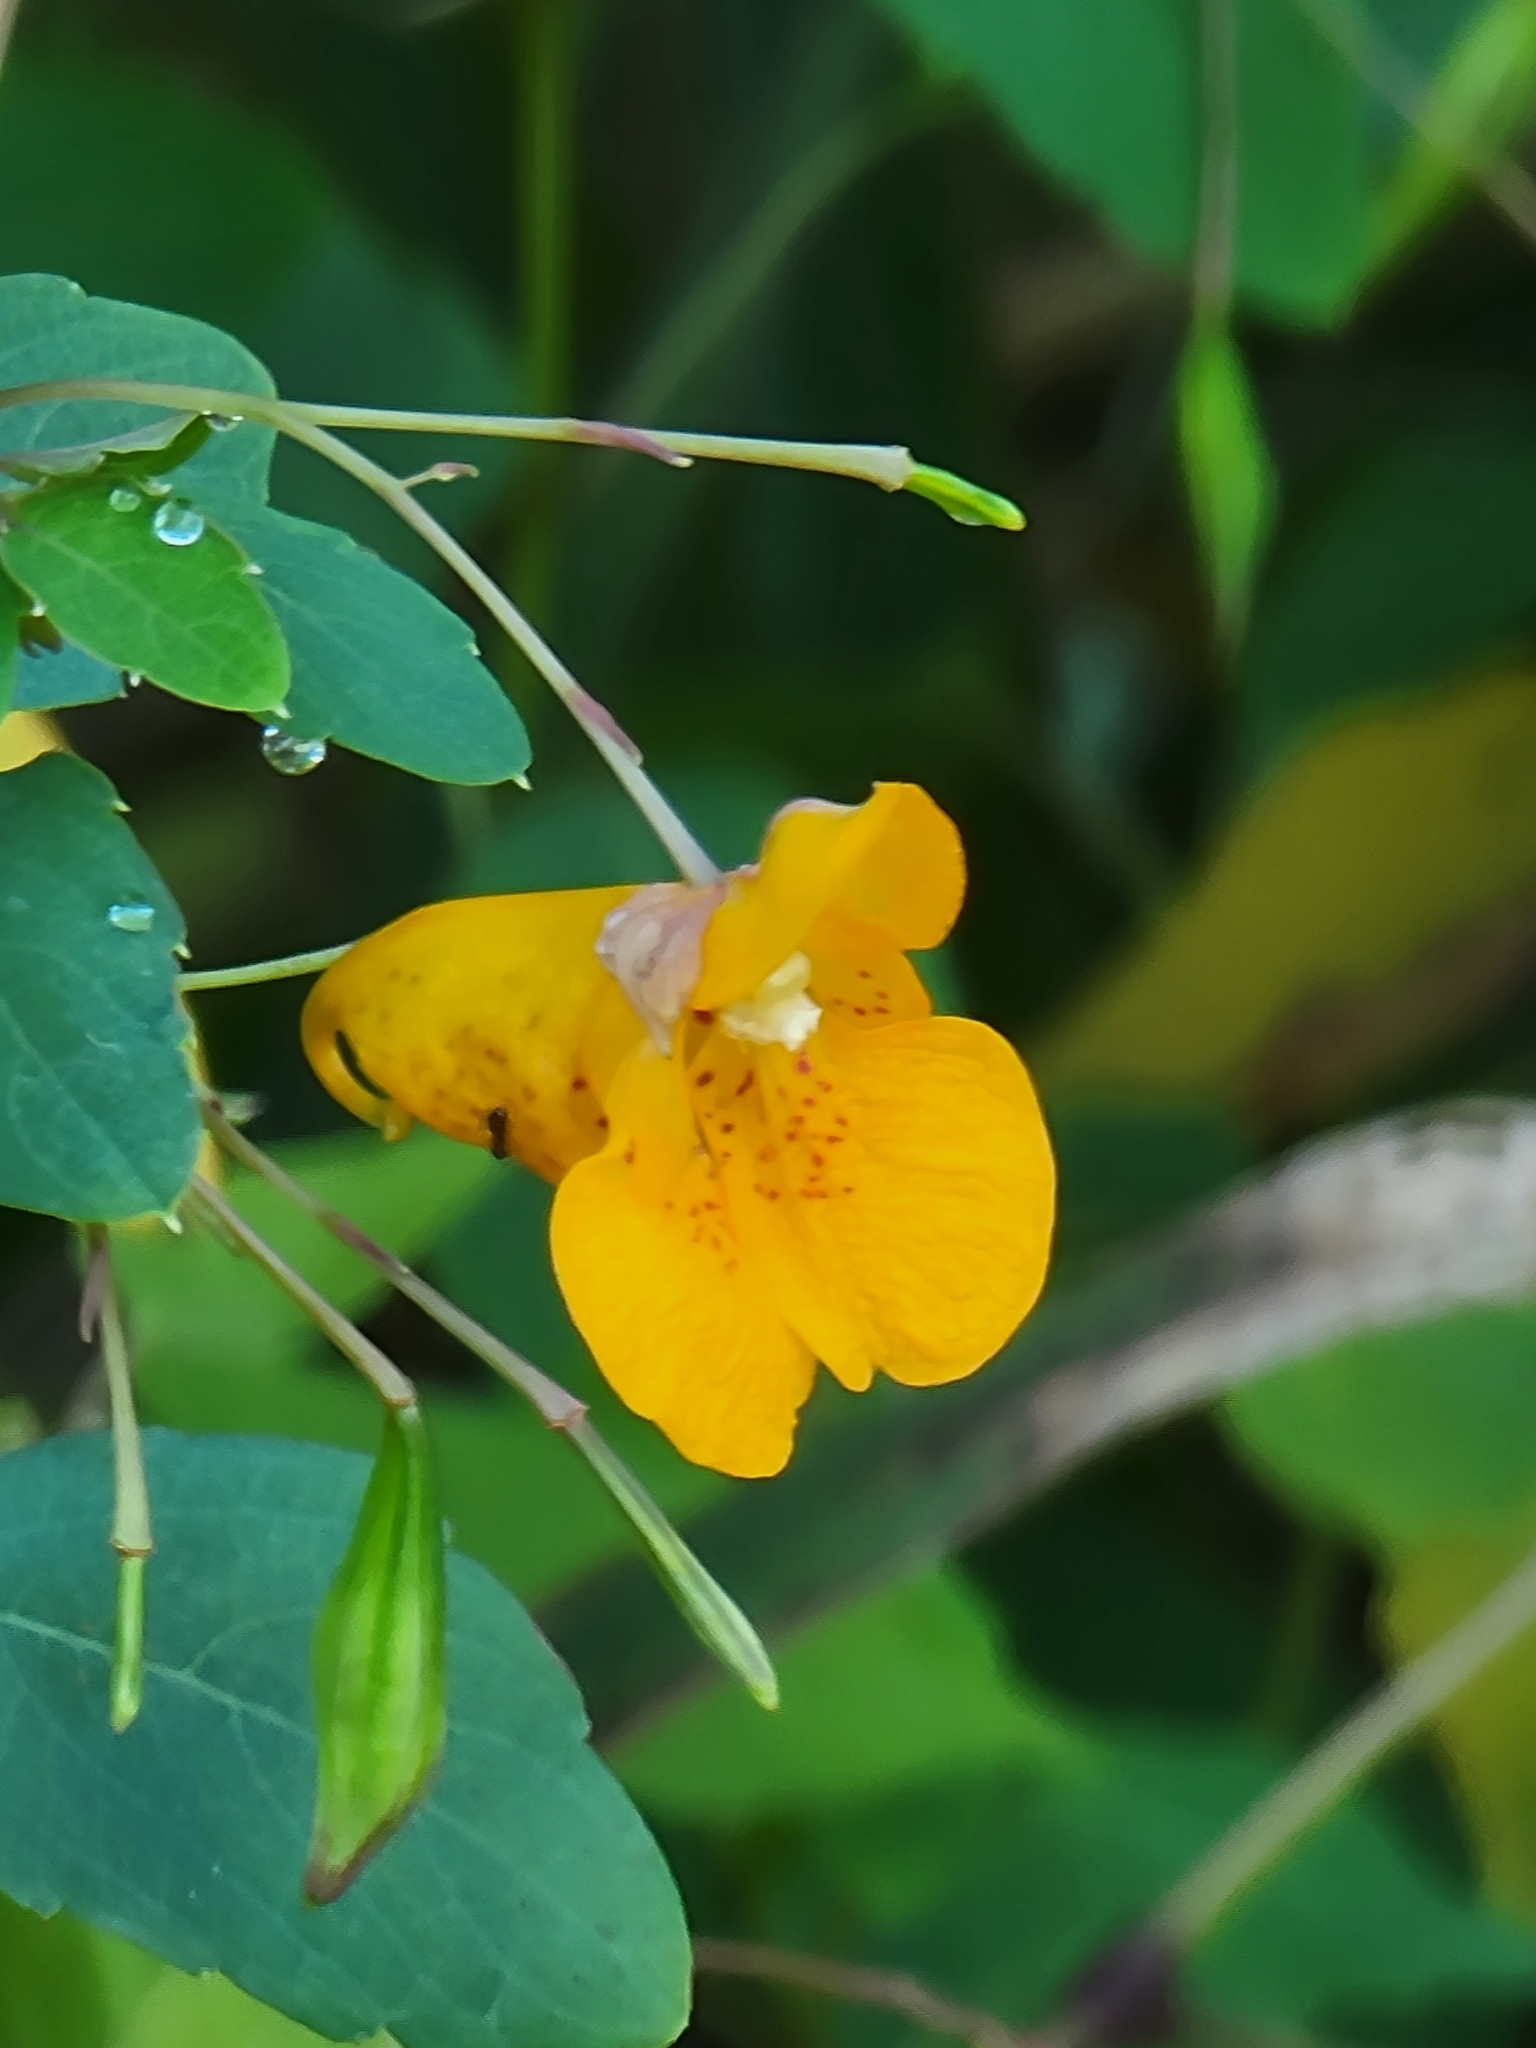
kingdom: Plantae
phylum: Tracheophyta
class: Magnoliopsida
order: Ericales
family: Balsaminaceae
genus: Impatiens
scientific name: Impatiens capensis
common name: Orange balsam
